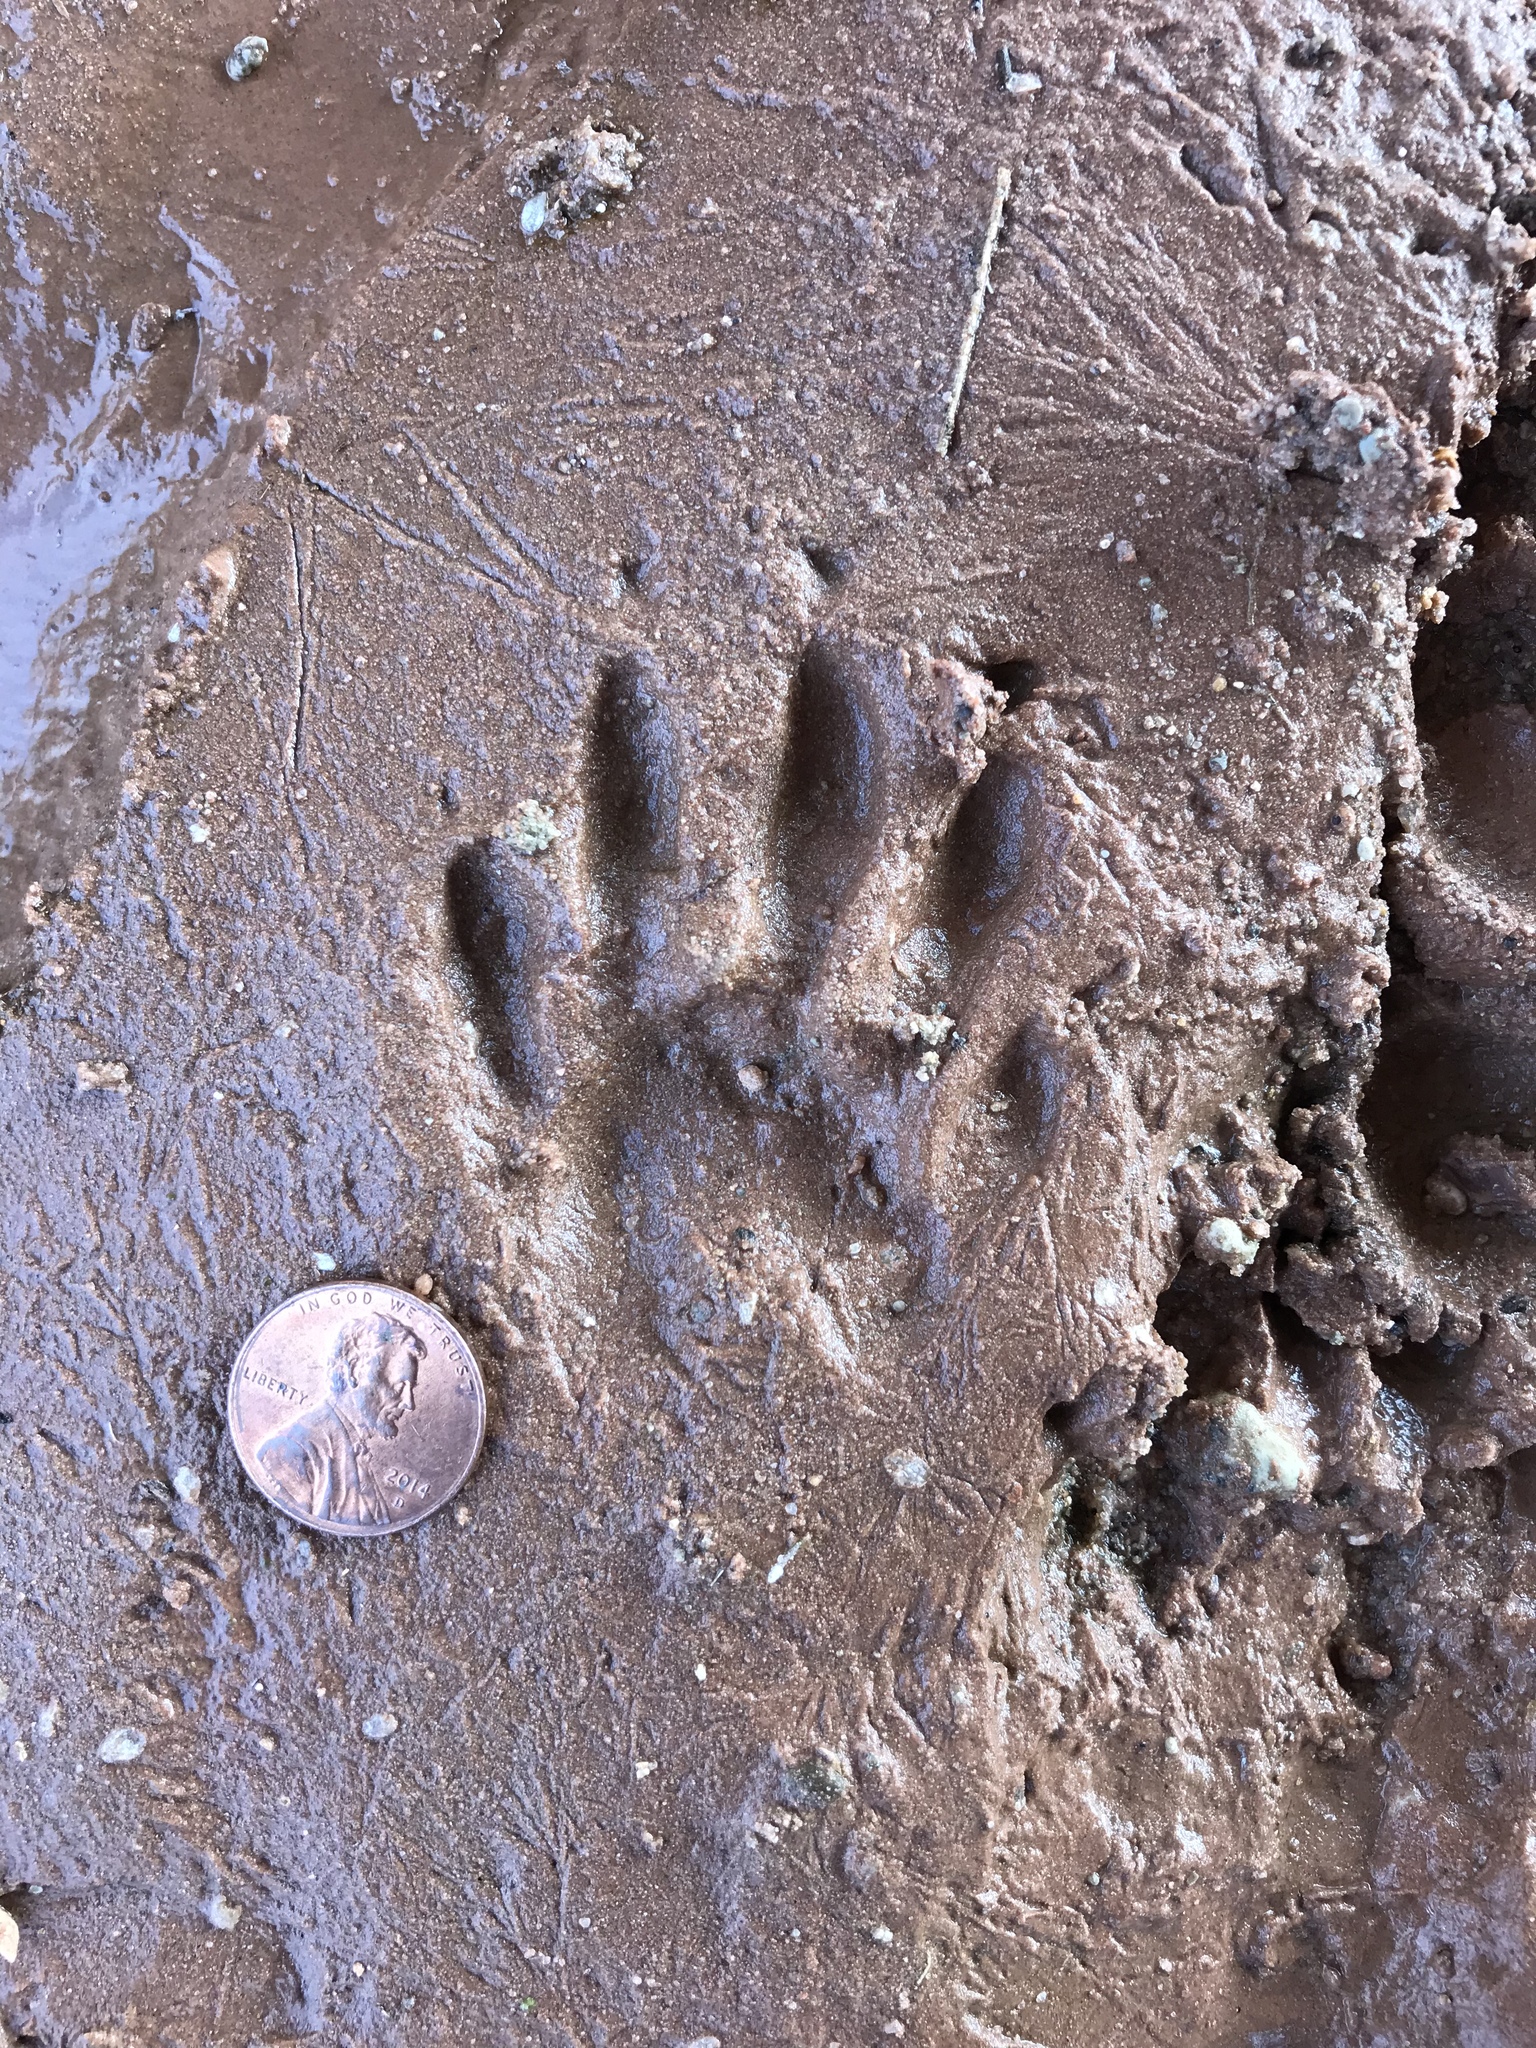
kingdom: Animalia
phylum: Chordata
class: Mammalia
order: Carnivora
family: Procyonidae
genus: Procyon
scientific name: Procyon lotor
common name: Raccoon
